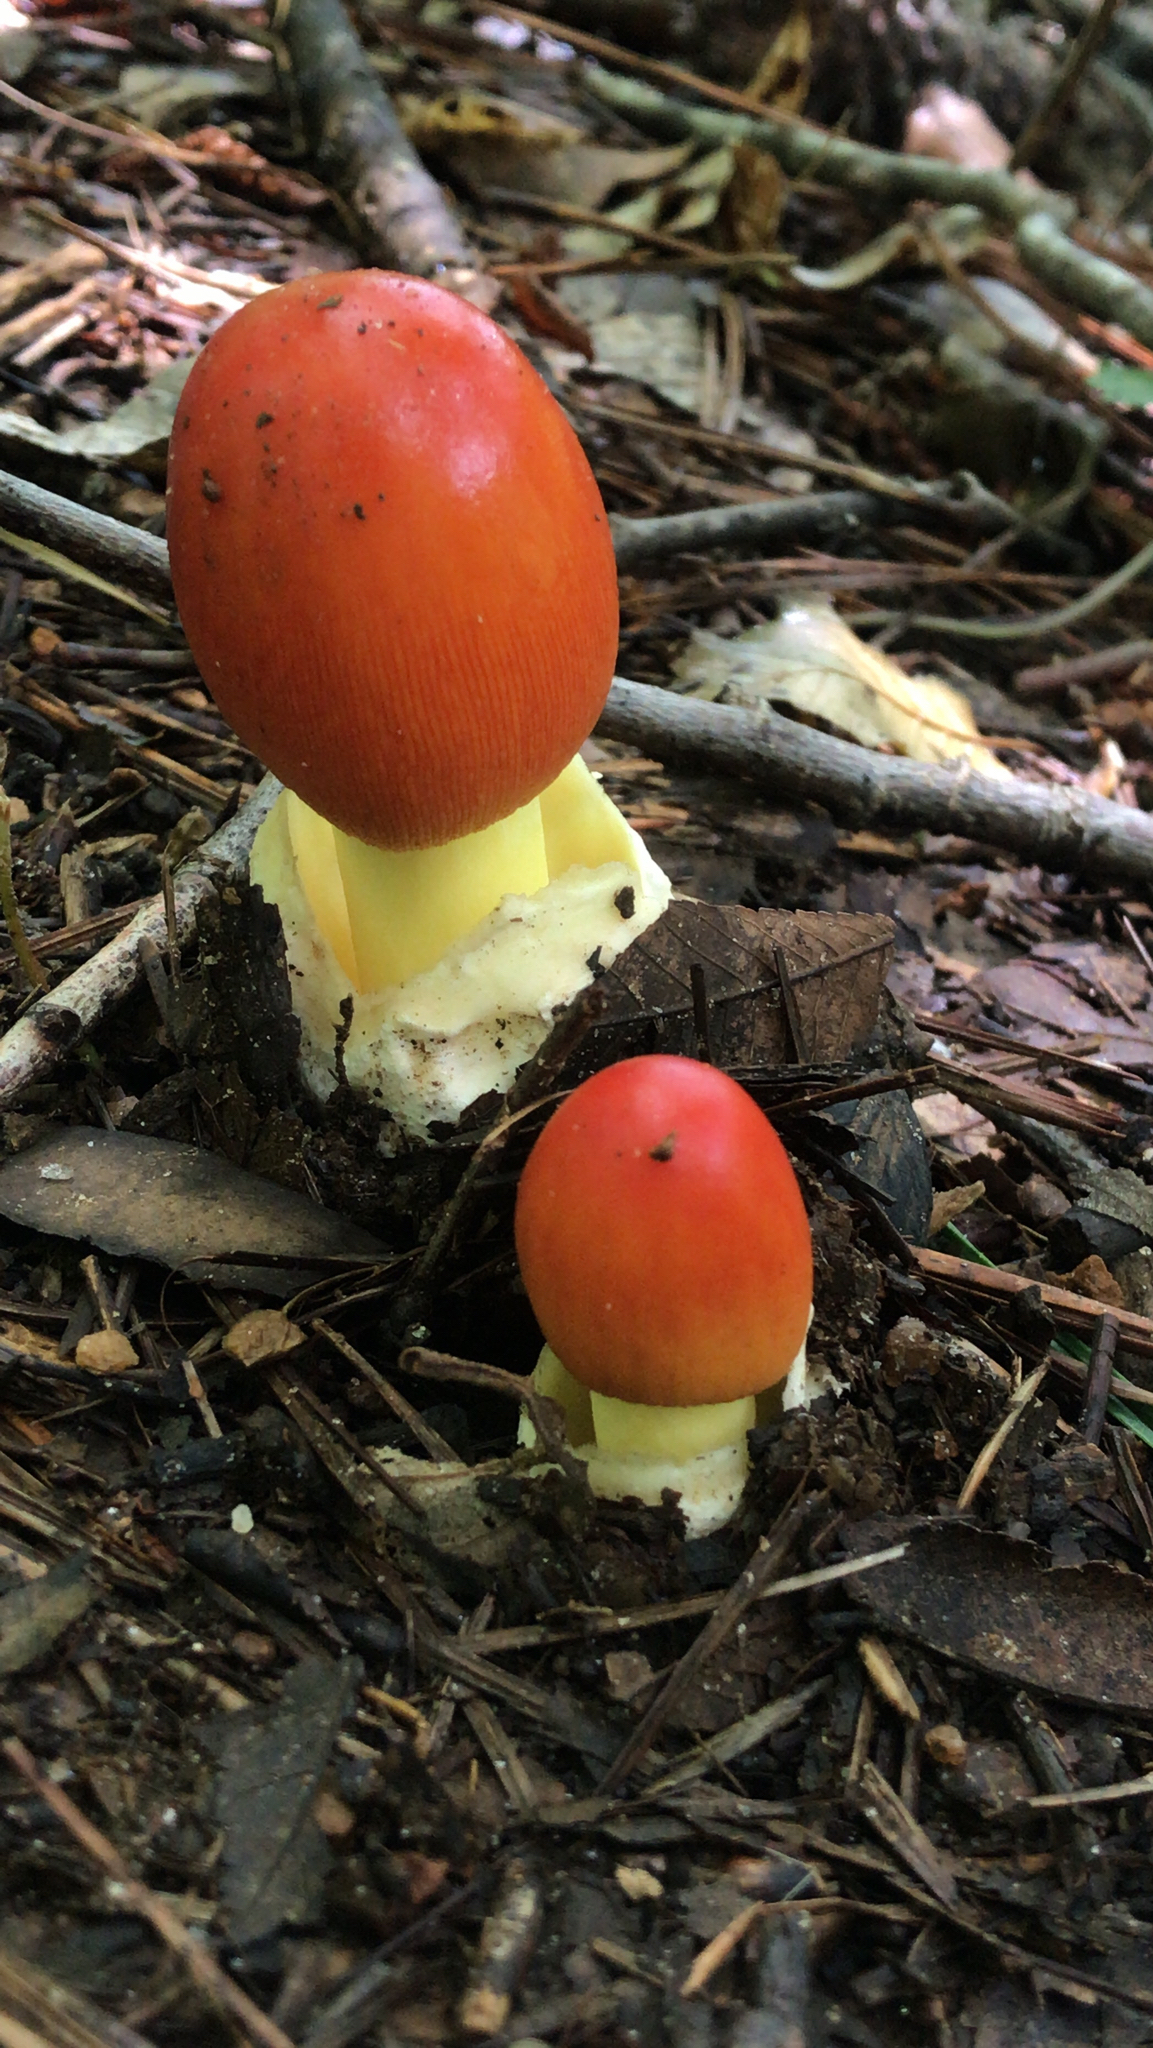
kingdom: Fungi
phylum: Basidiomycota
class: Agaricomycetes
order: Agaricales
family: Amanitaceae
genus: Amanita
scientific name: Amanita jacksonii
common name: Jackson's slender caesar
